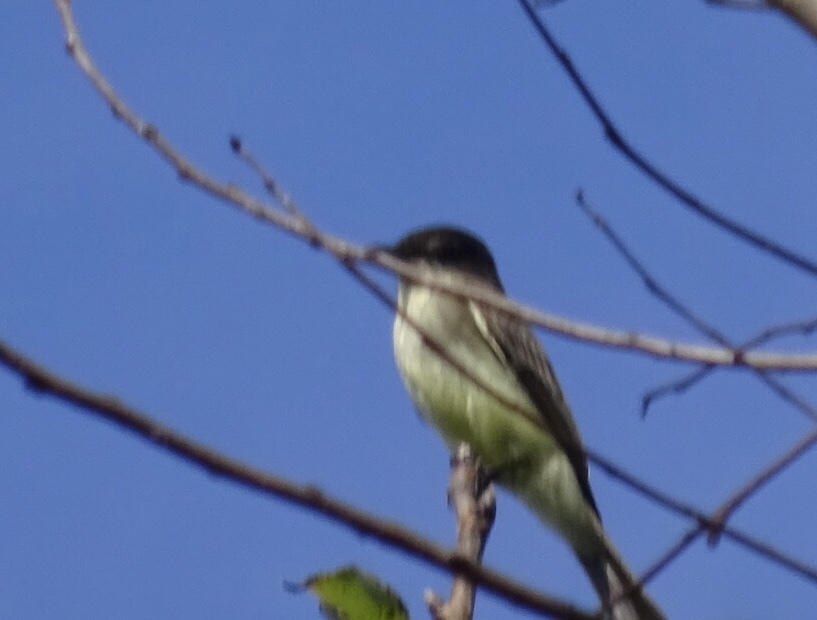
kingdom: Animalia
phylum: Chordata
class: Aves
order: Passeriformes
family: Tyrannidae
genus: Sayornis
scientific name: Sayornis phoebe
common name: Eastern phoebe
